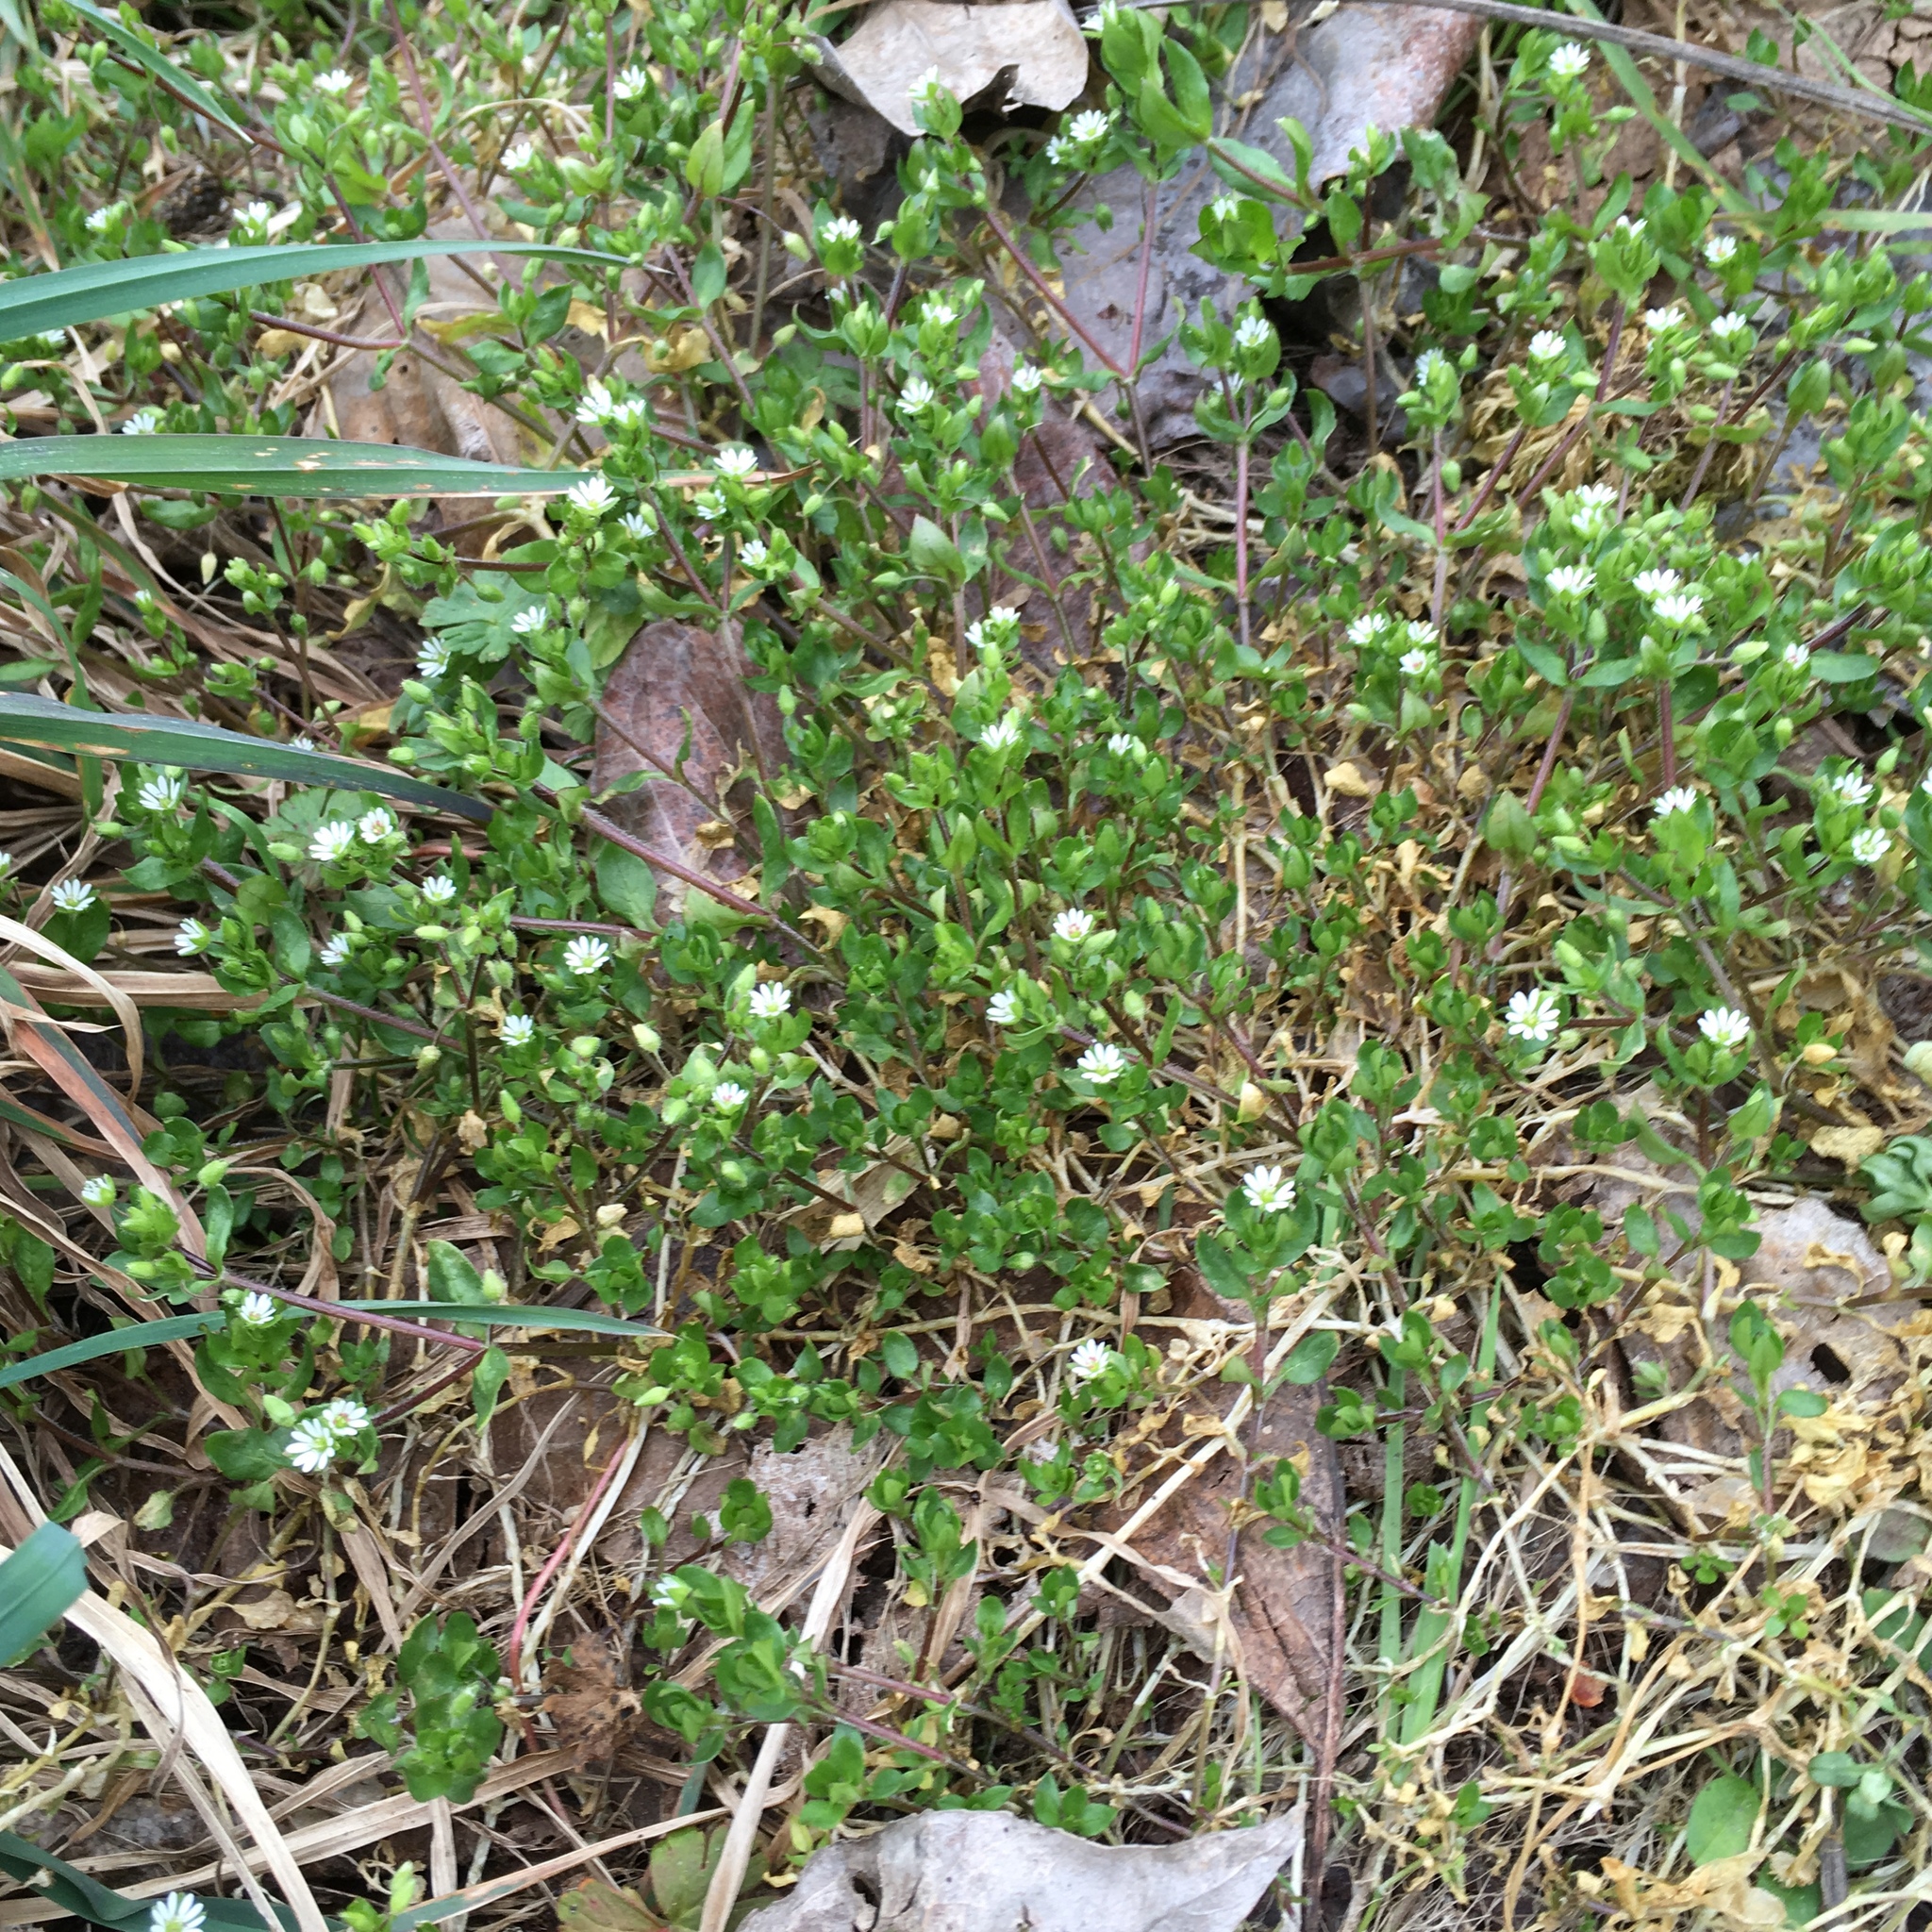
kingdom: Plantae
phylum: Tracheophyta
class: Magnoliopsida
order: Caryophyllales
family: Caryophyllaceae
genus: Stellaria
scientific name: Stellaria media
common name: Common chickweed
